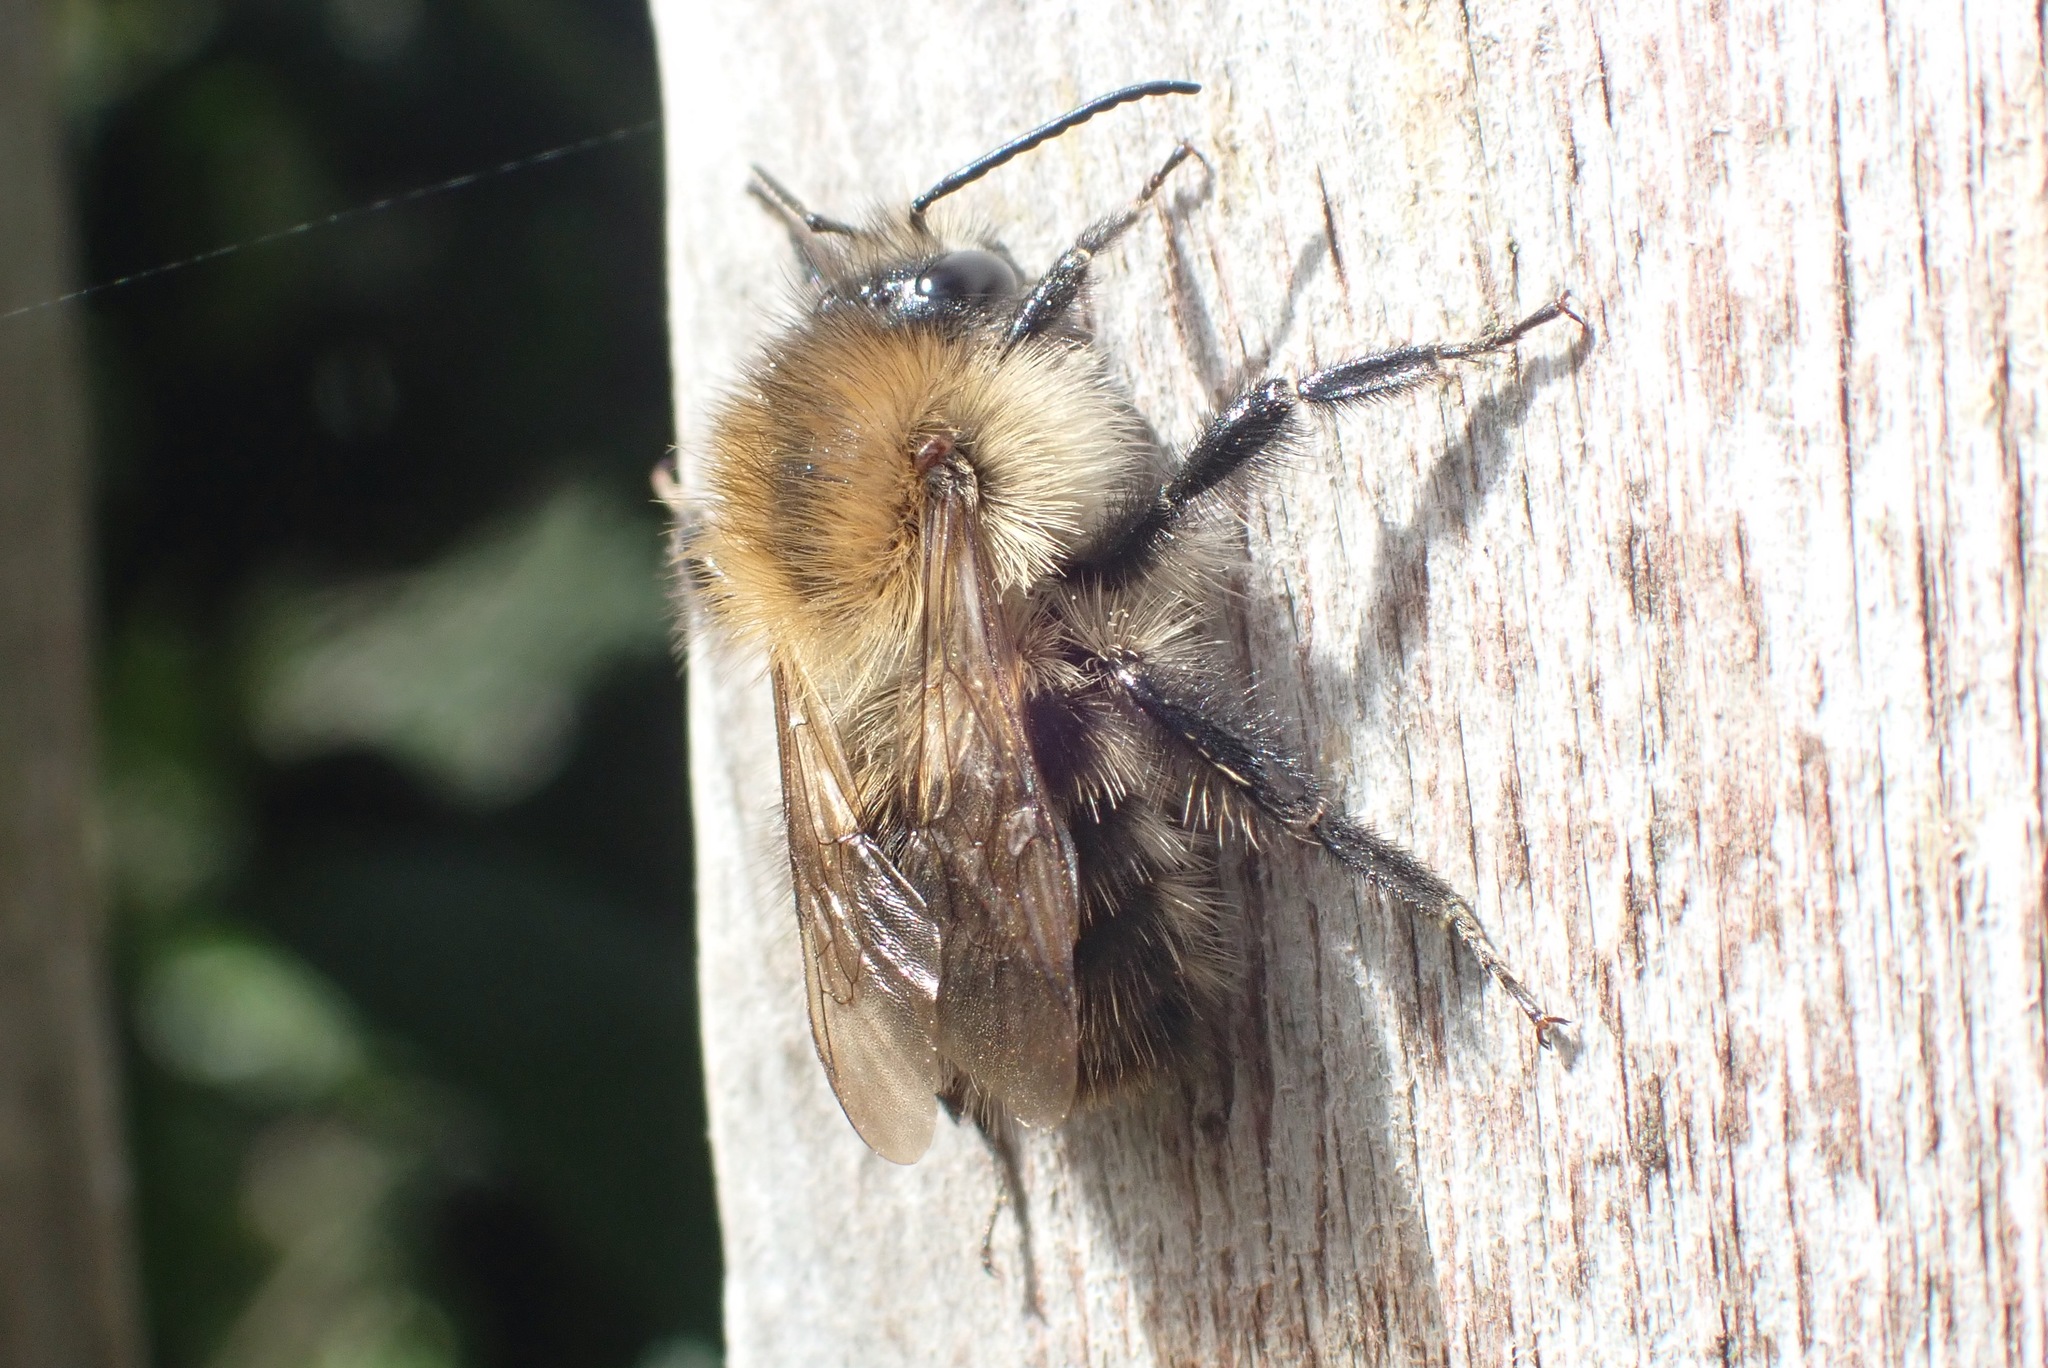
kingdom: Animalia
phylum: Arthropoda
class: Insecta
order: Hymenoptera
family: Apidae
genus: Bombus
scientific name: Bombus pascuorum
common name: Common carder bee
